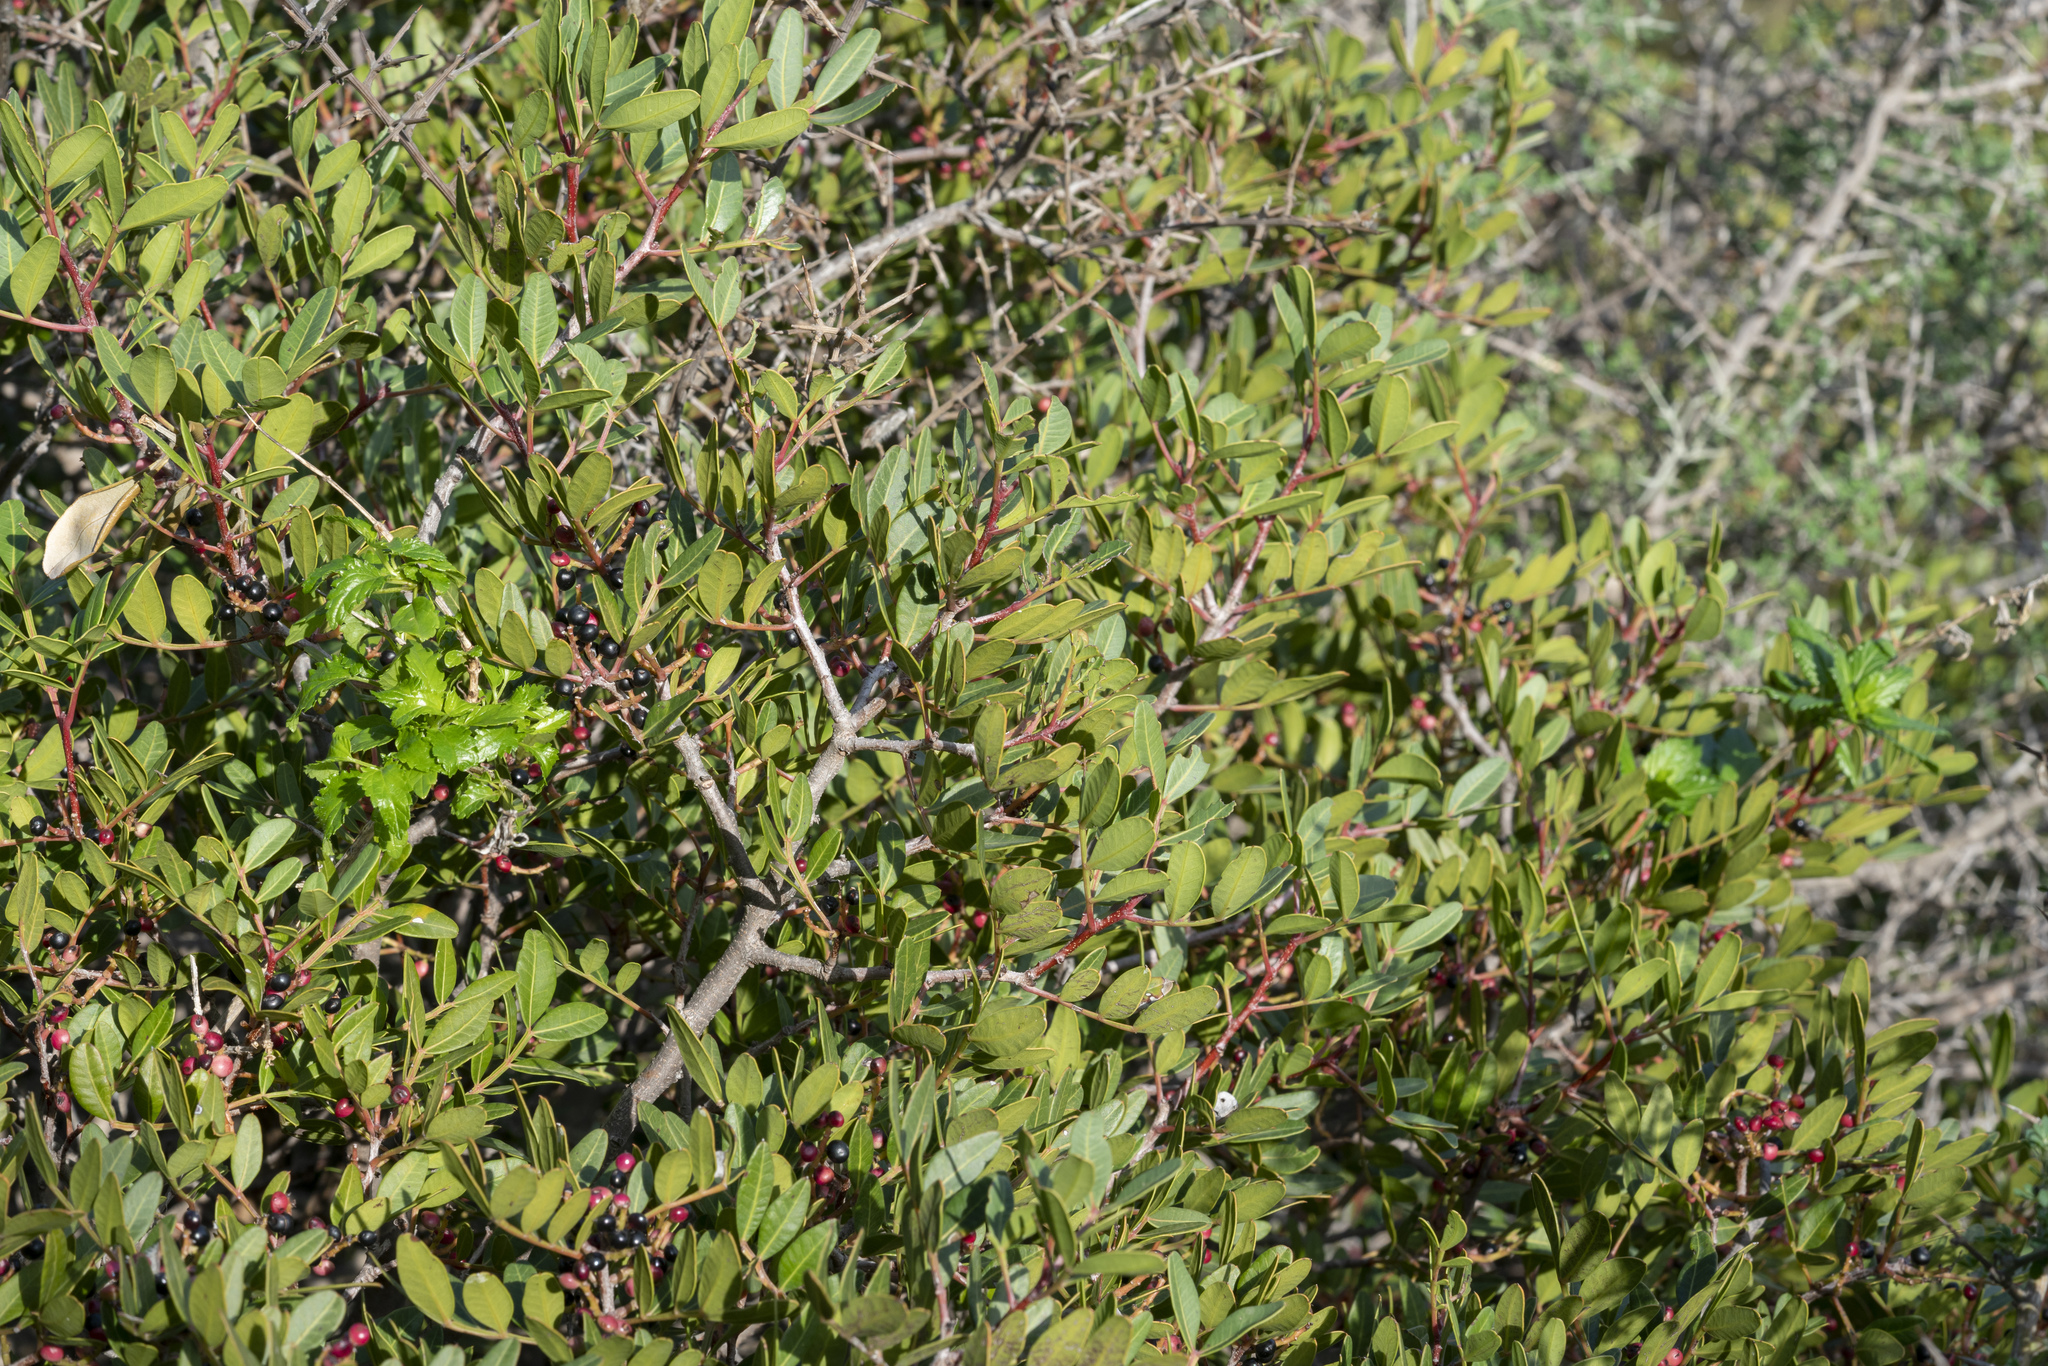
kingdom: Plantae
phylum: Tracheophyta
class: Magnoliopsida
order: Sapindales
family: Anacardiaceae
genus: Pistacia
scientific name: Pistacia lentiscus
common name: Lentisk
